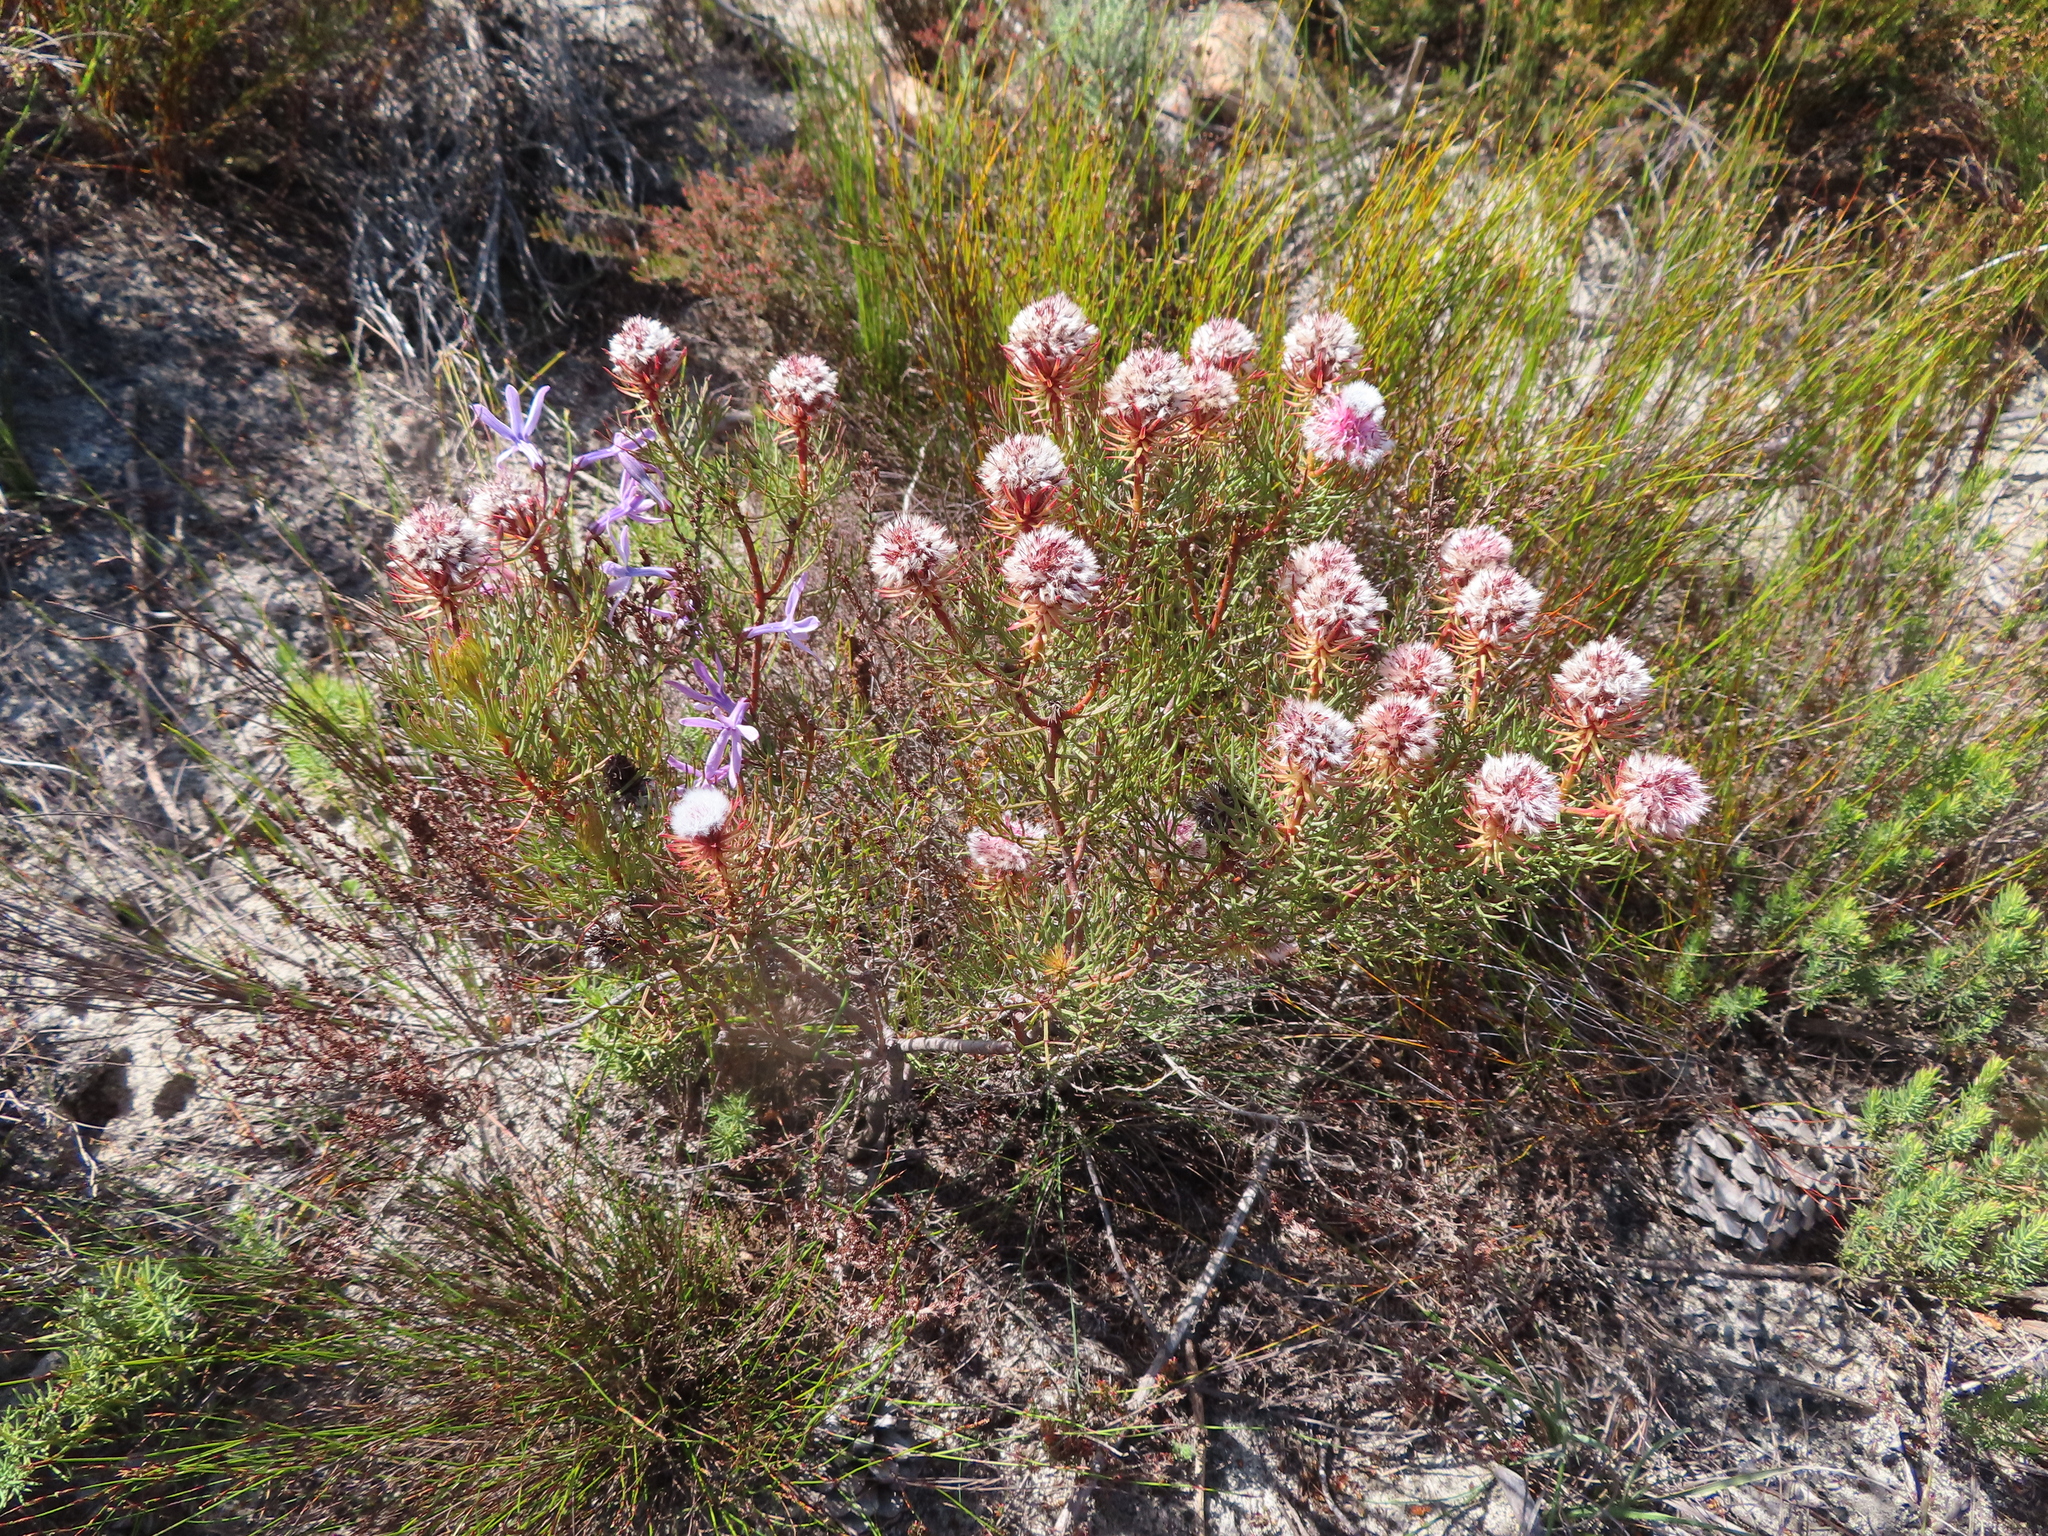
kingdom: Plantae
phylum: Tracheophyta
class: Magnoliopsida
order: Proteales
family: Proteaceae
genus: Serruria
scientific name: Serruria phylicoides
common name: Bearded spiderhead
